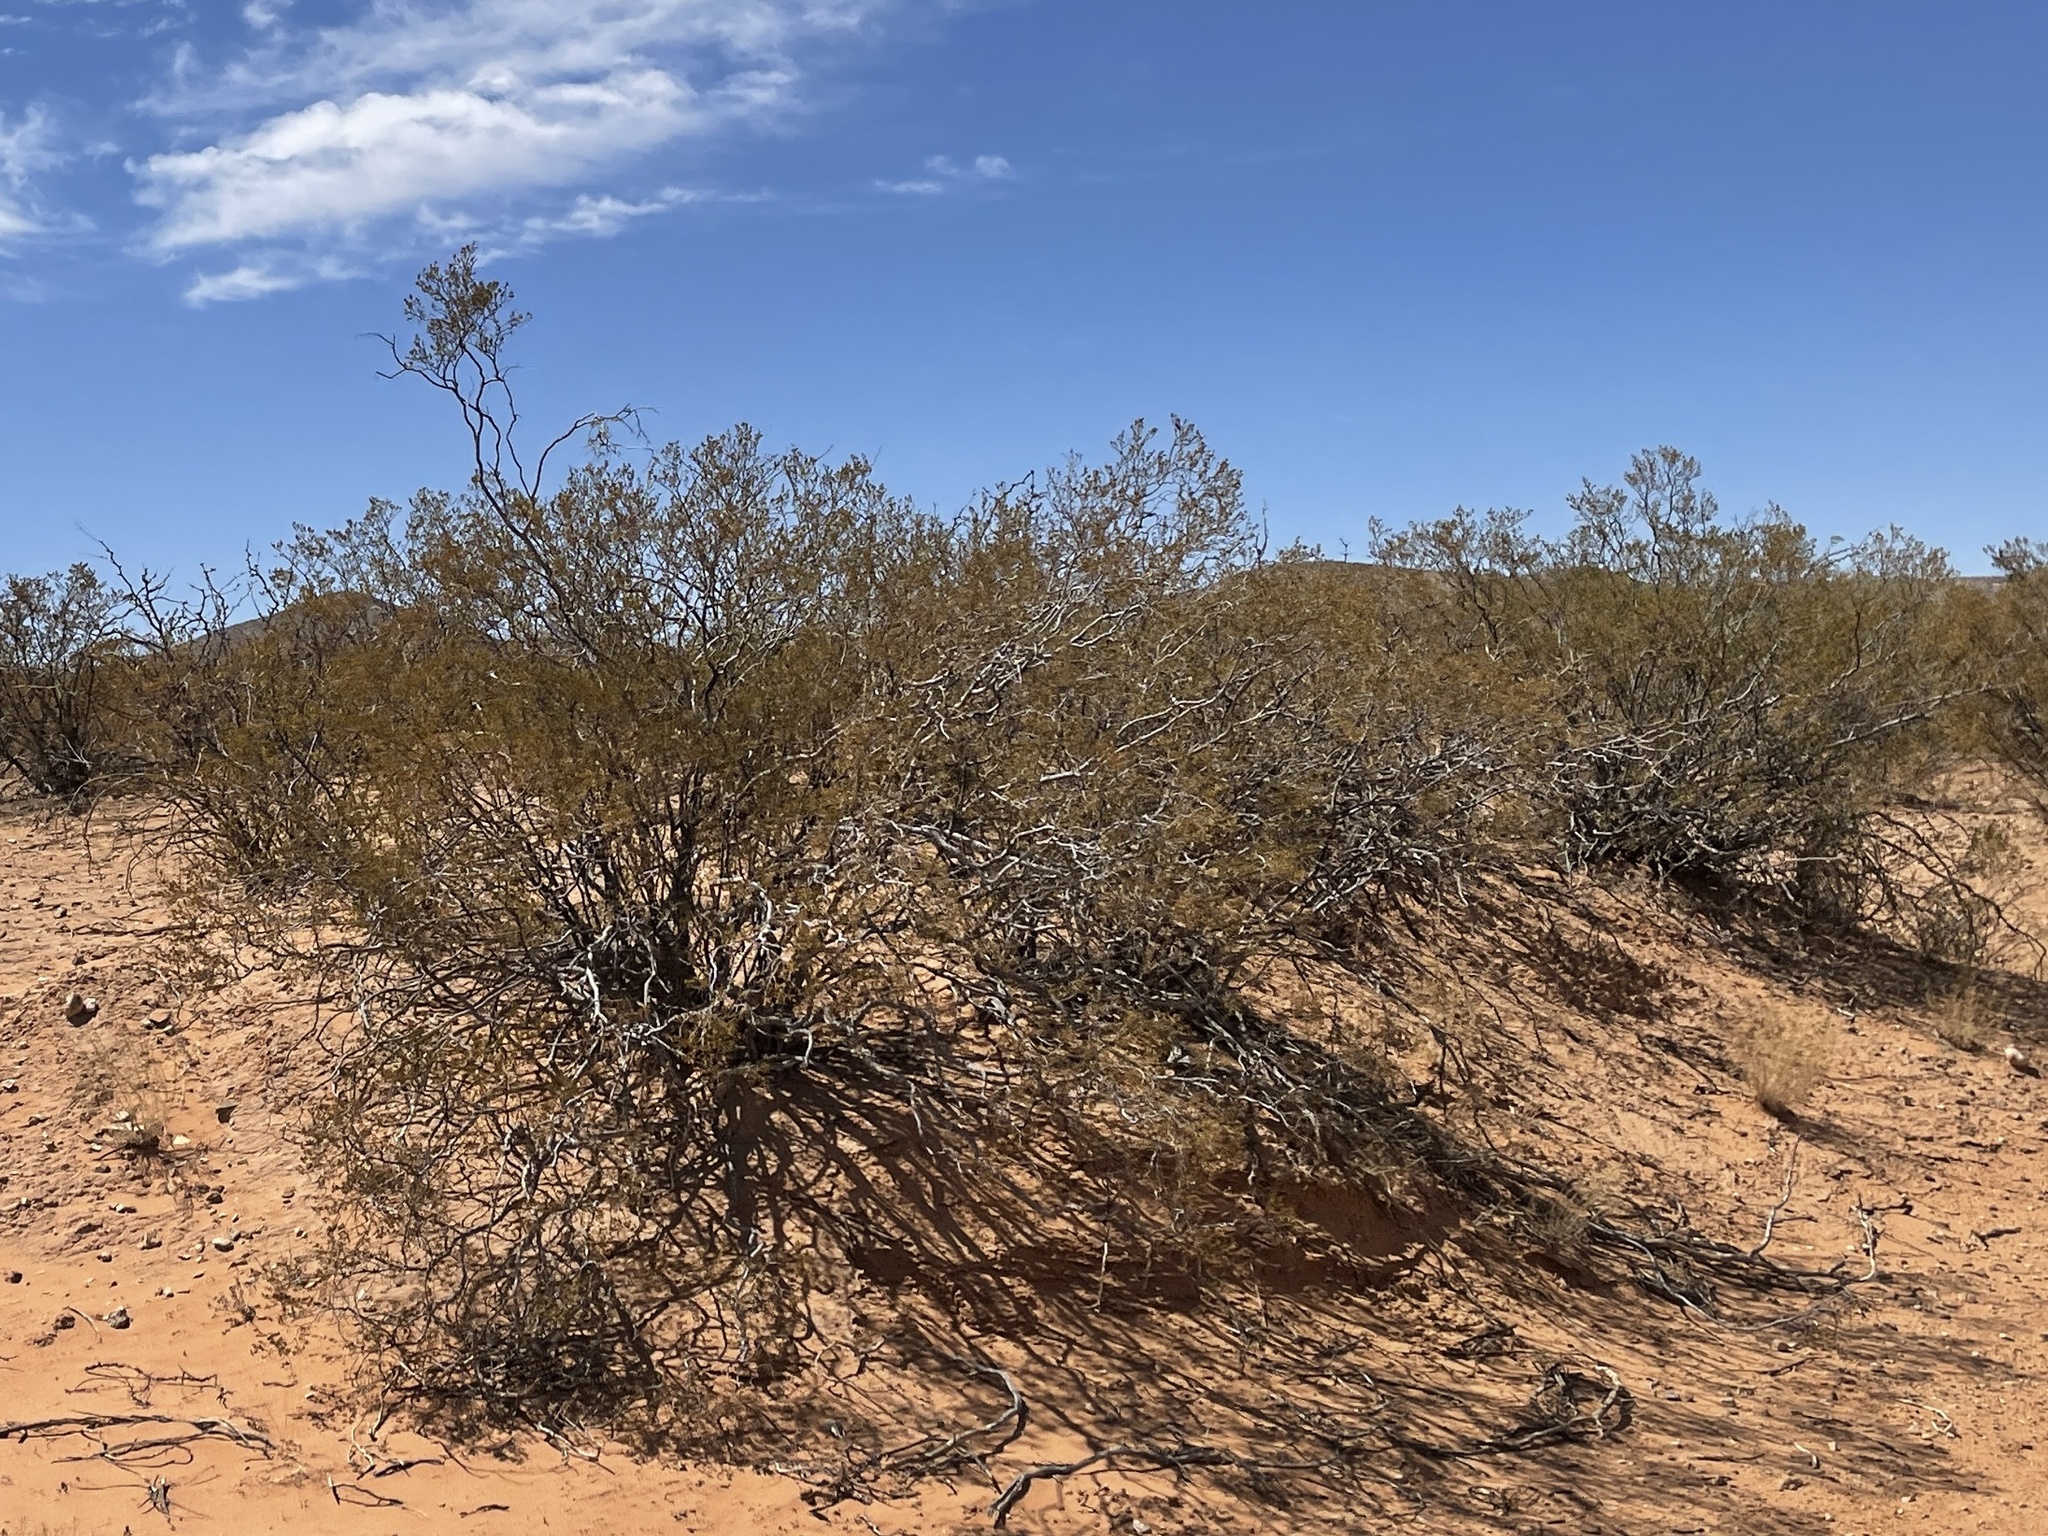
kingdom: Plantae
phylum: Tracheophyta
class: Magnoliopsida
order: Zygophyllales
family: Zygophyllaceae
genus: Larrea
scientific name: Larrea tridentata
